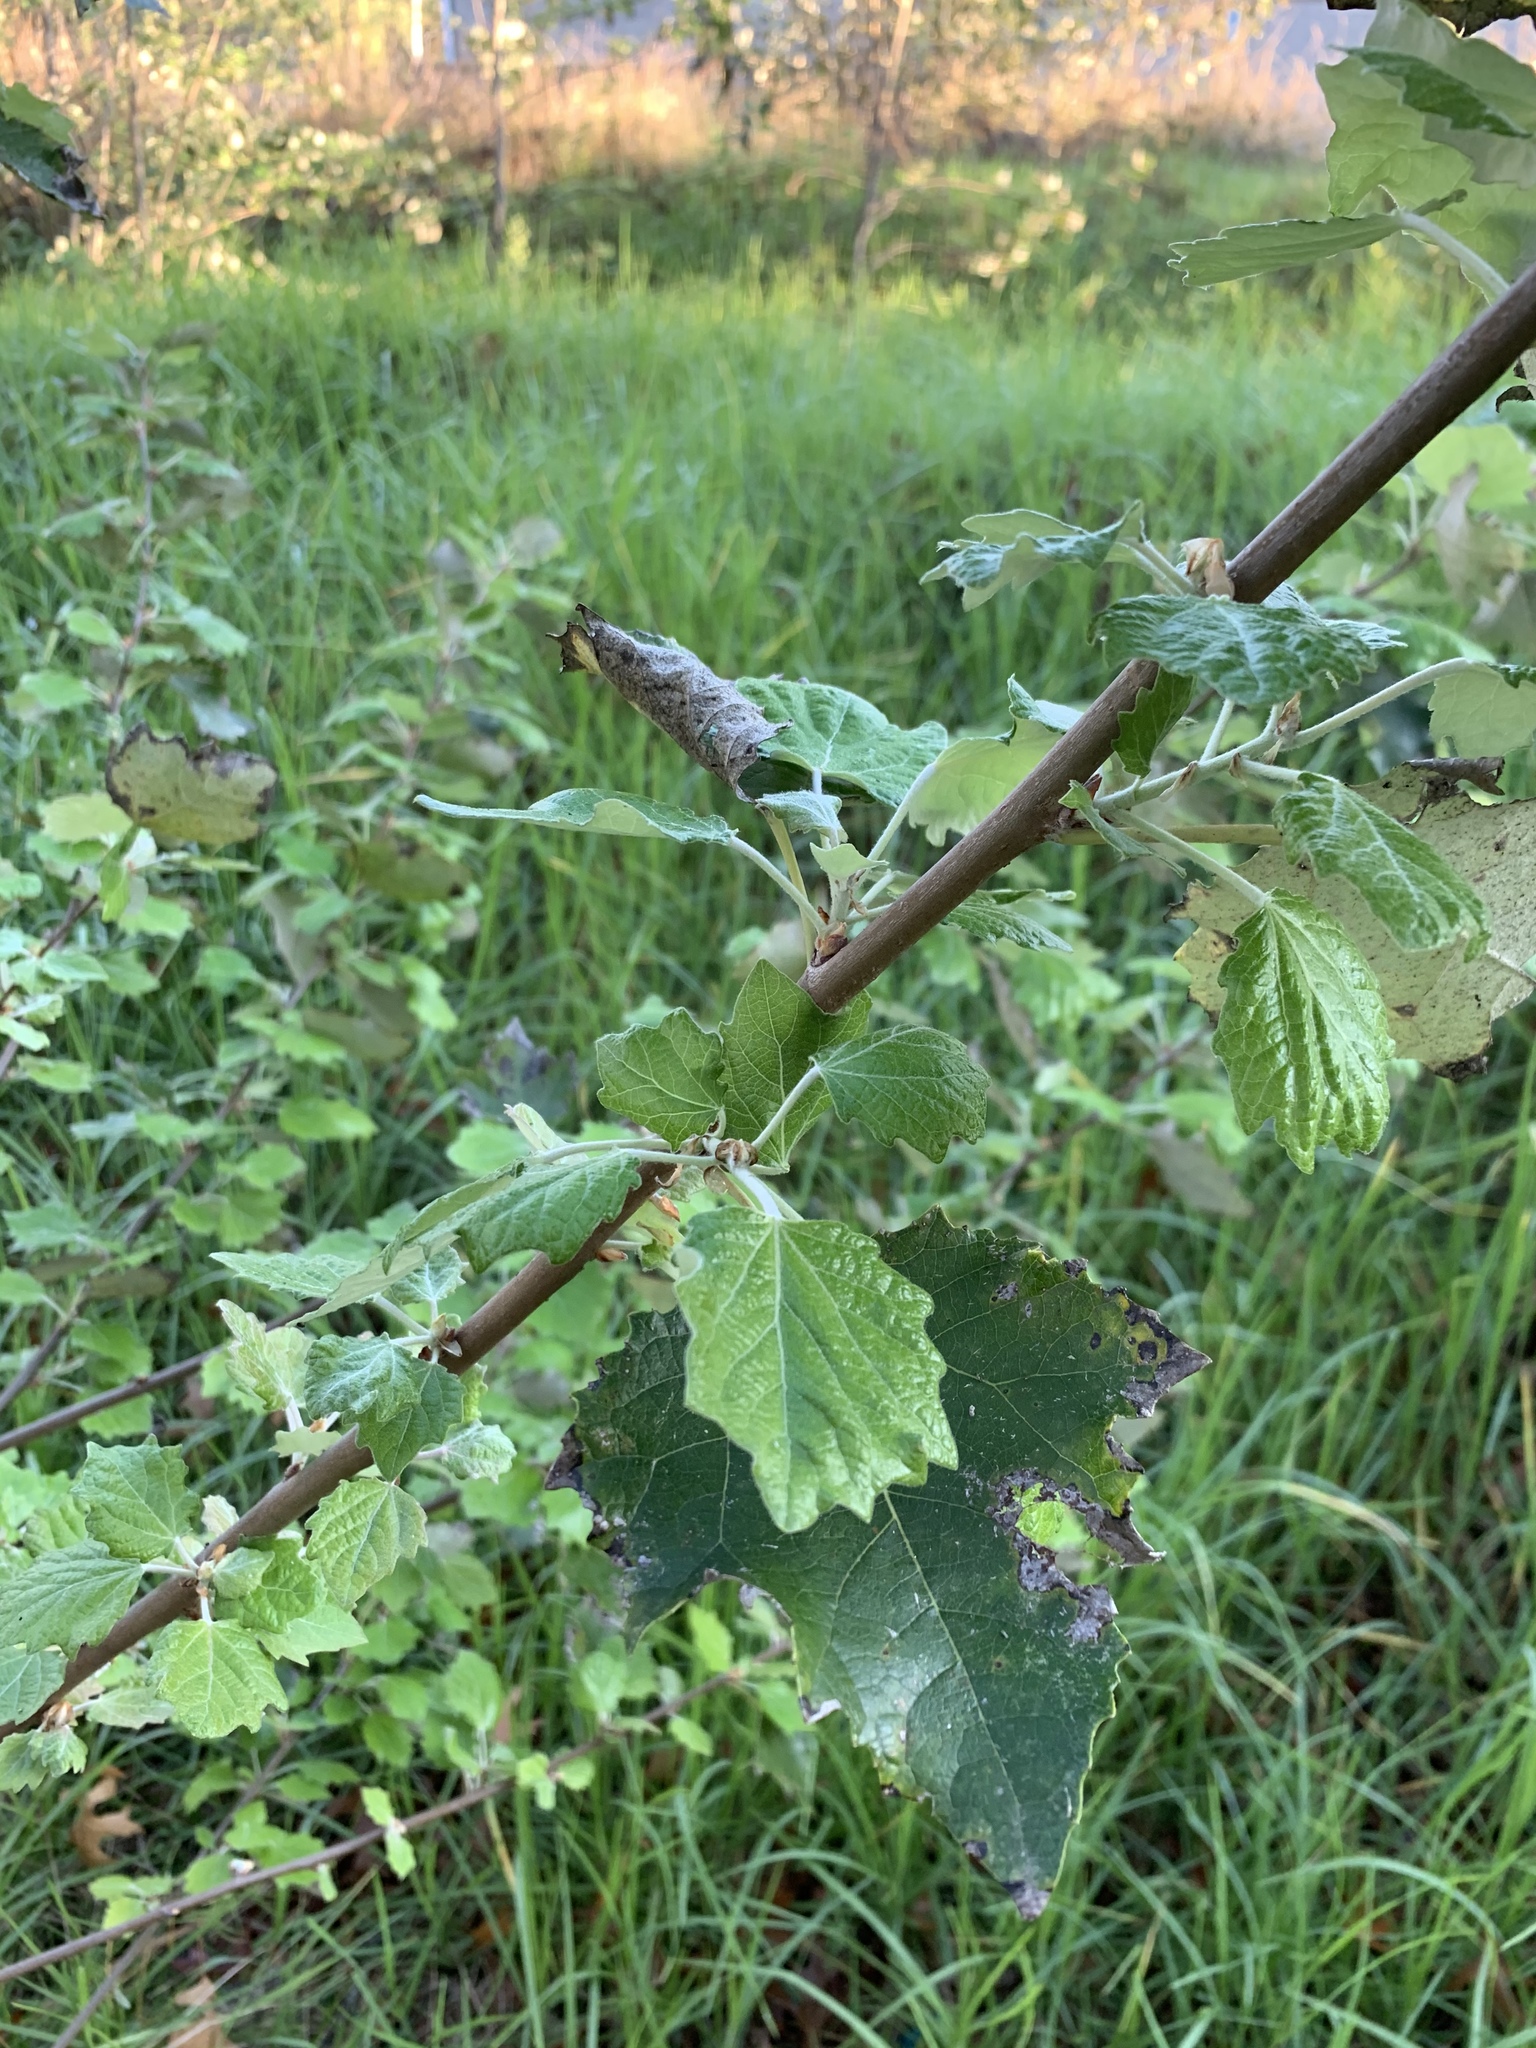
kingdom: Plantae
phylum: Tracheophyta
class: Magnoliopsida
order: Malpighiales
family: Salicaceae
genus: Populus
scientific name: Populus canescens
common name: Gray poplar
